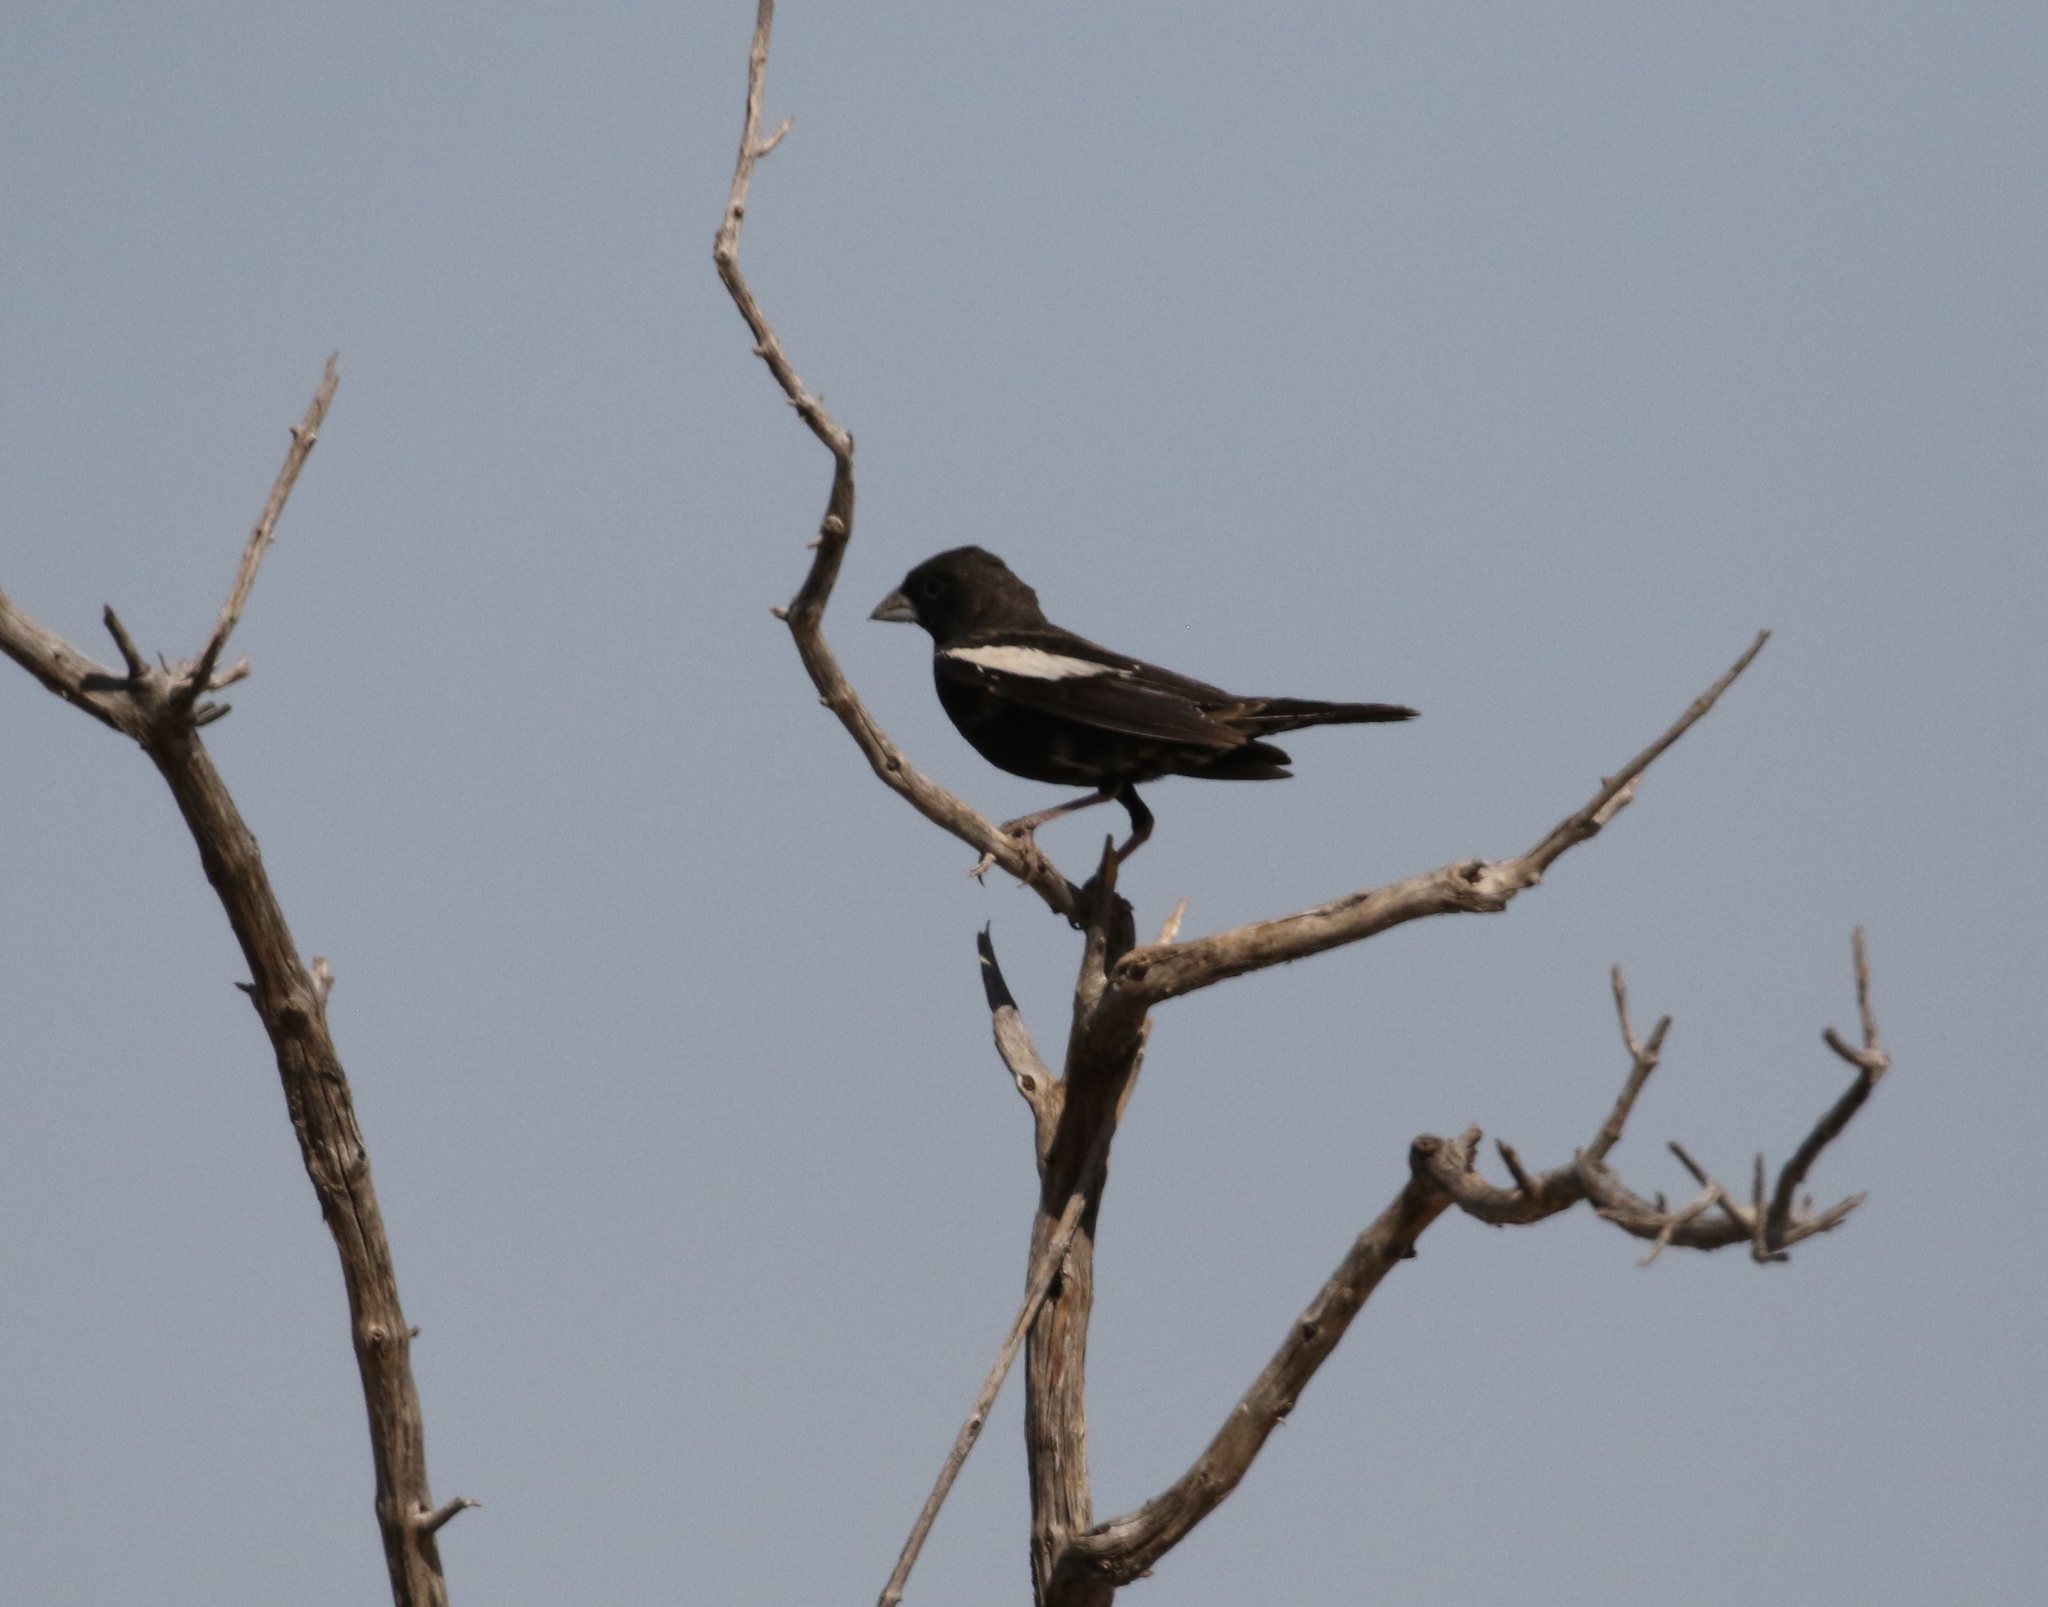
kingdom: Animalia
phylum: Chordata
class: Aves
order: Passeriformes
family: Passerellidae
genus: Calamospiza
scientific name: Calamospiza melanocorys
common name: Lark bunting
